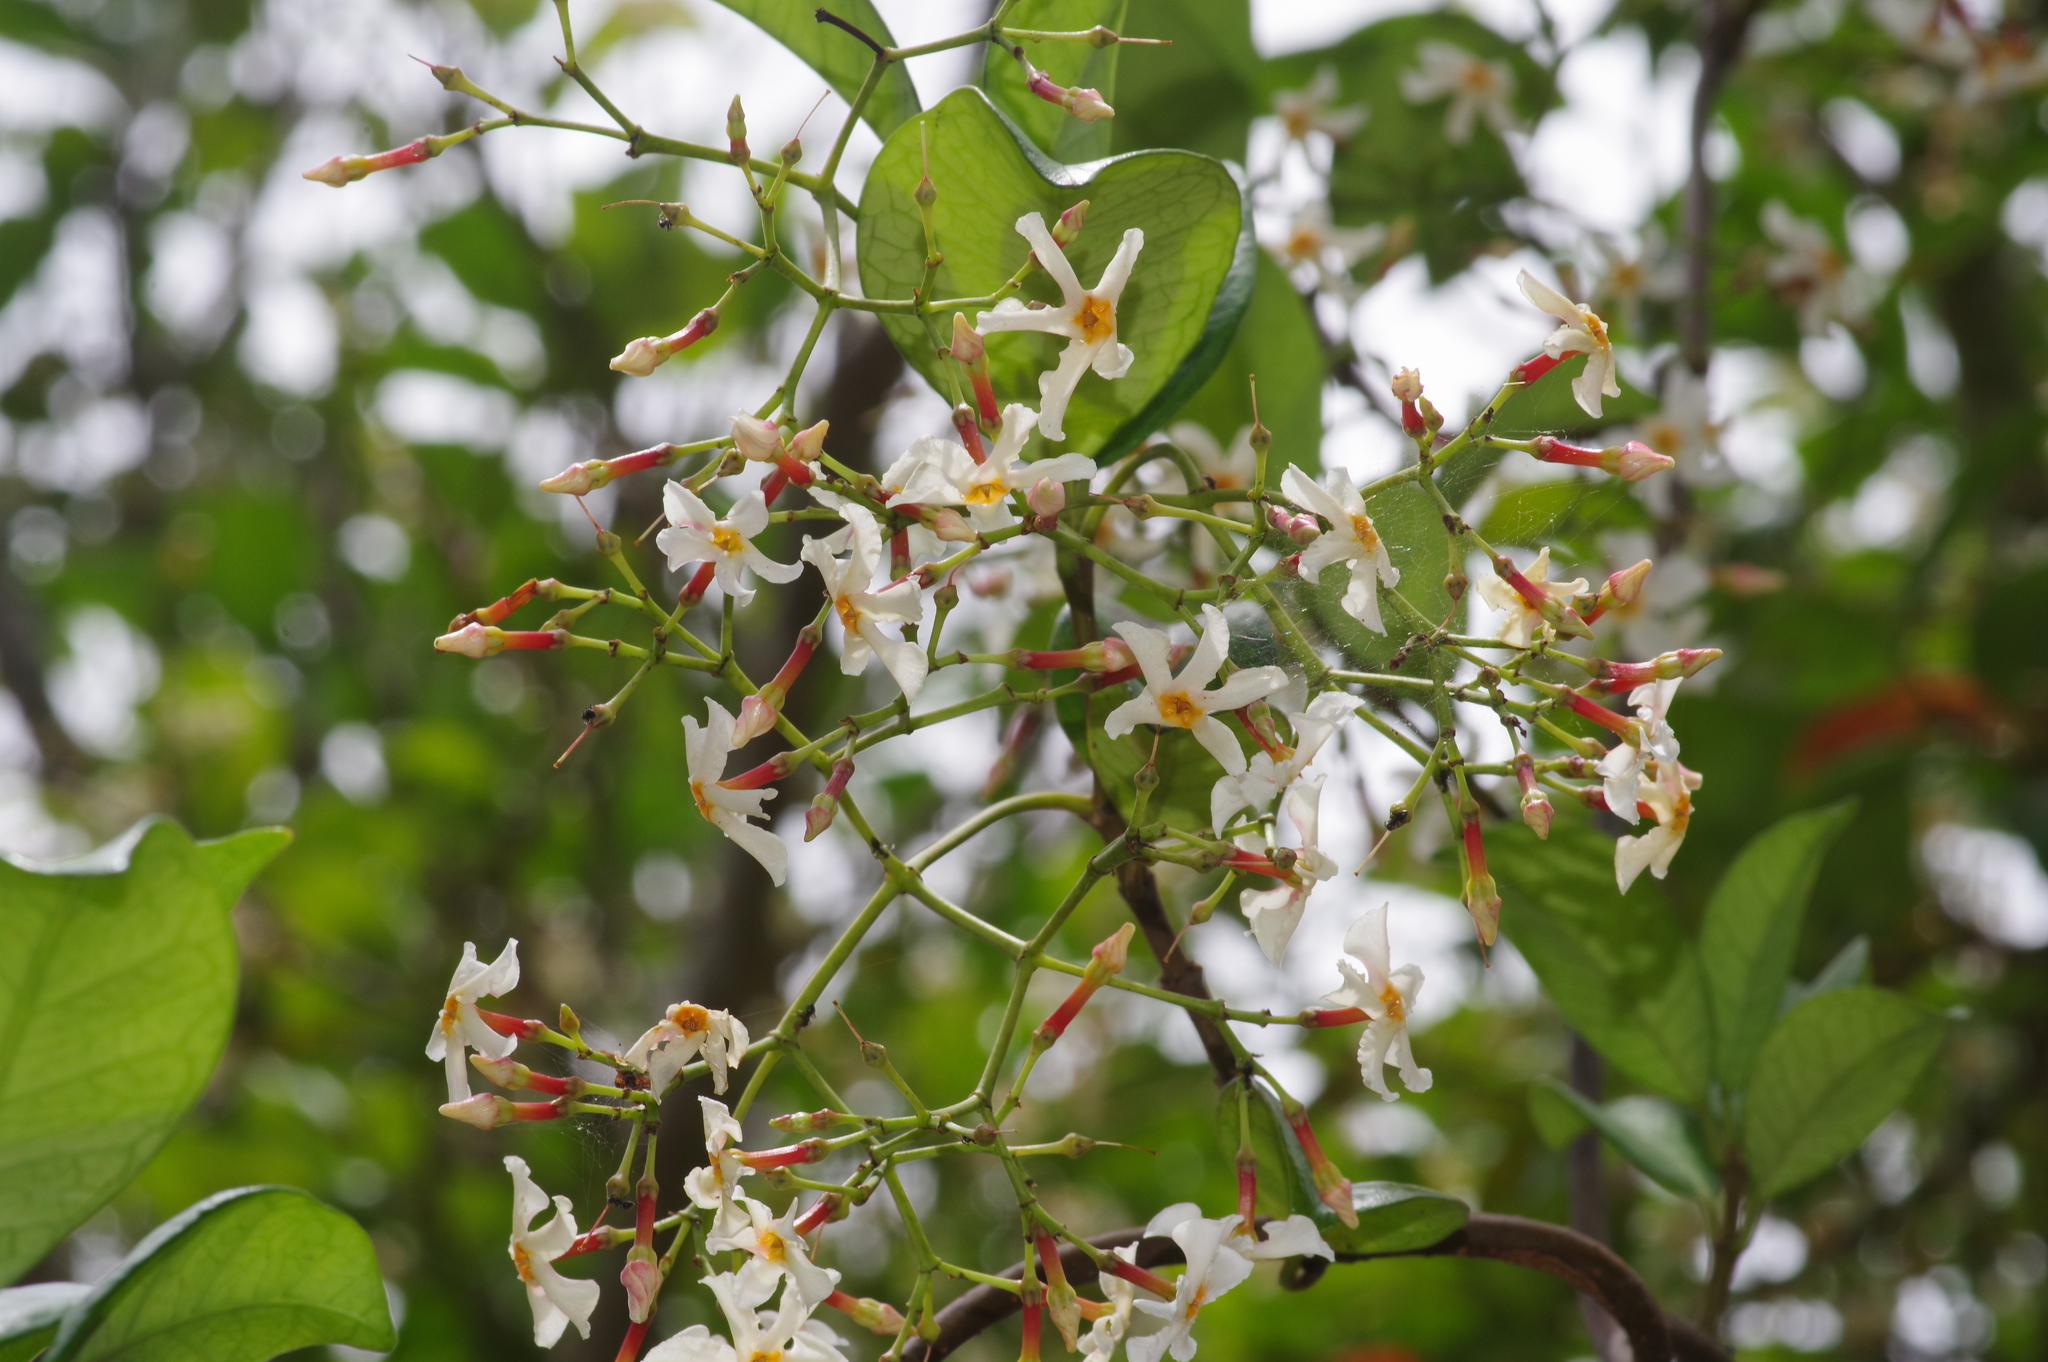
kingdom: Plantae
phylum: Tracheophyta
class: Magnoliopsida
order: Gentianales
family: Apocynaceae
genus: Trachelospermum
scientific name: Trachelospermum gracilipes
